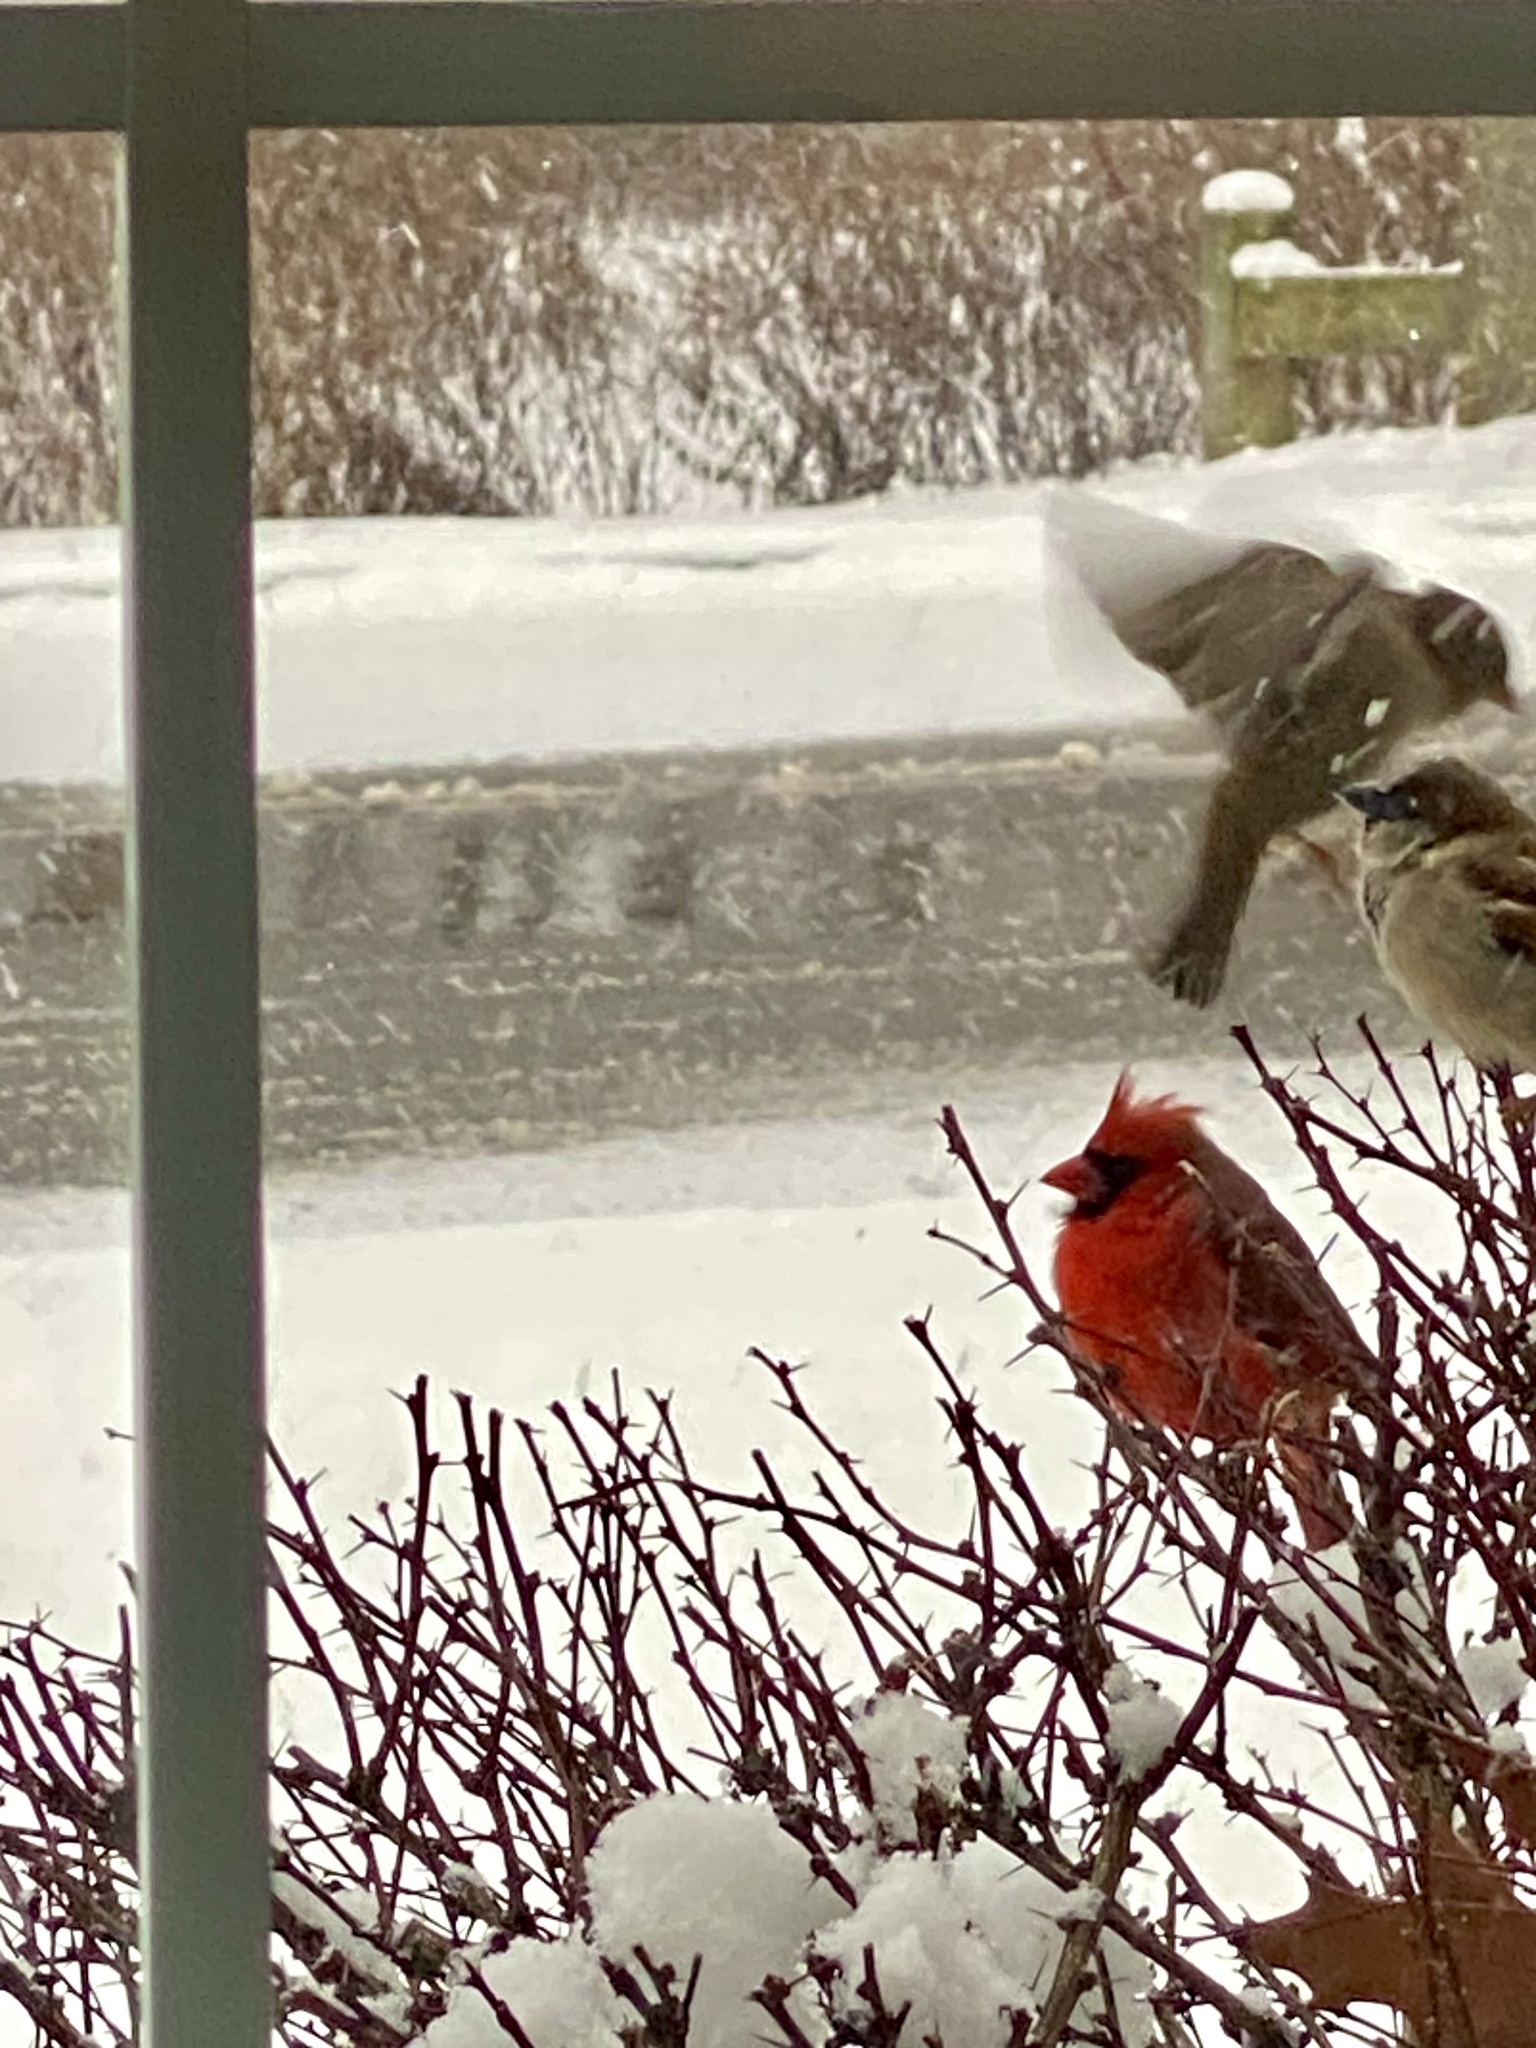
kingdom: Animalia
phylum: Chordata
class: Aves
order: Passeriformes
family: Cardinalidae
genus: Cardinalis
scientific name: Cardinalis cardinalis
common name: Northern cardinal
